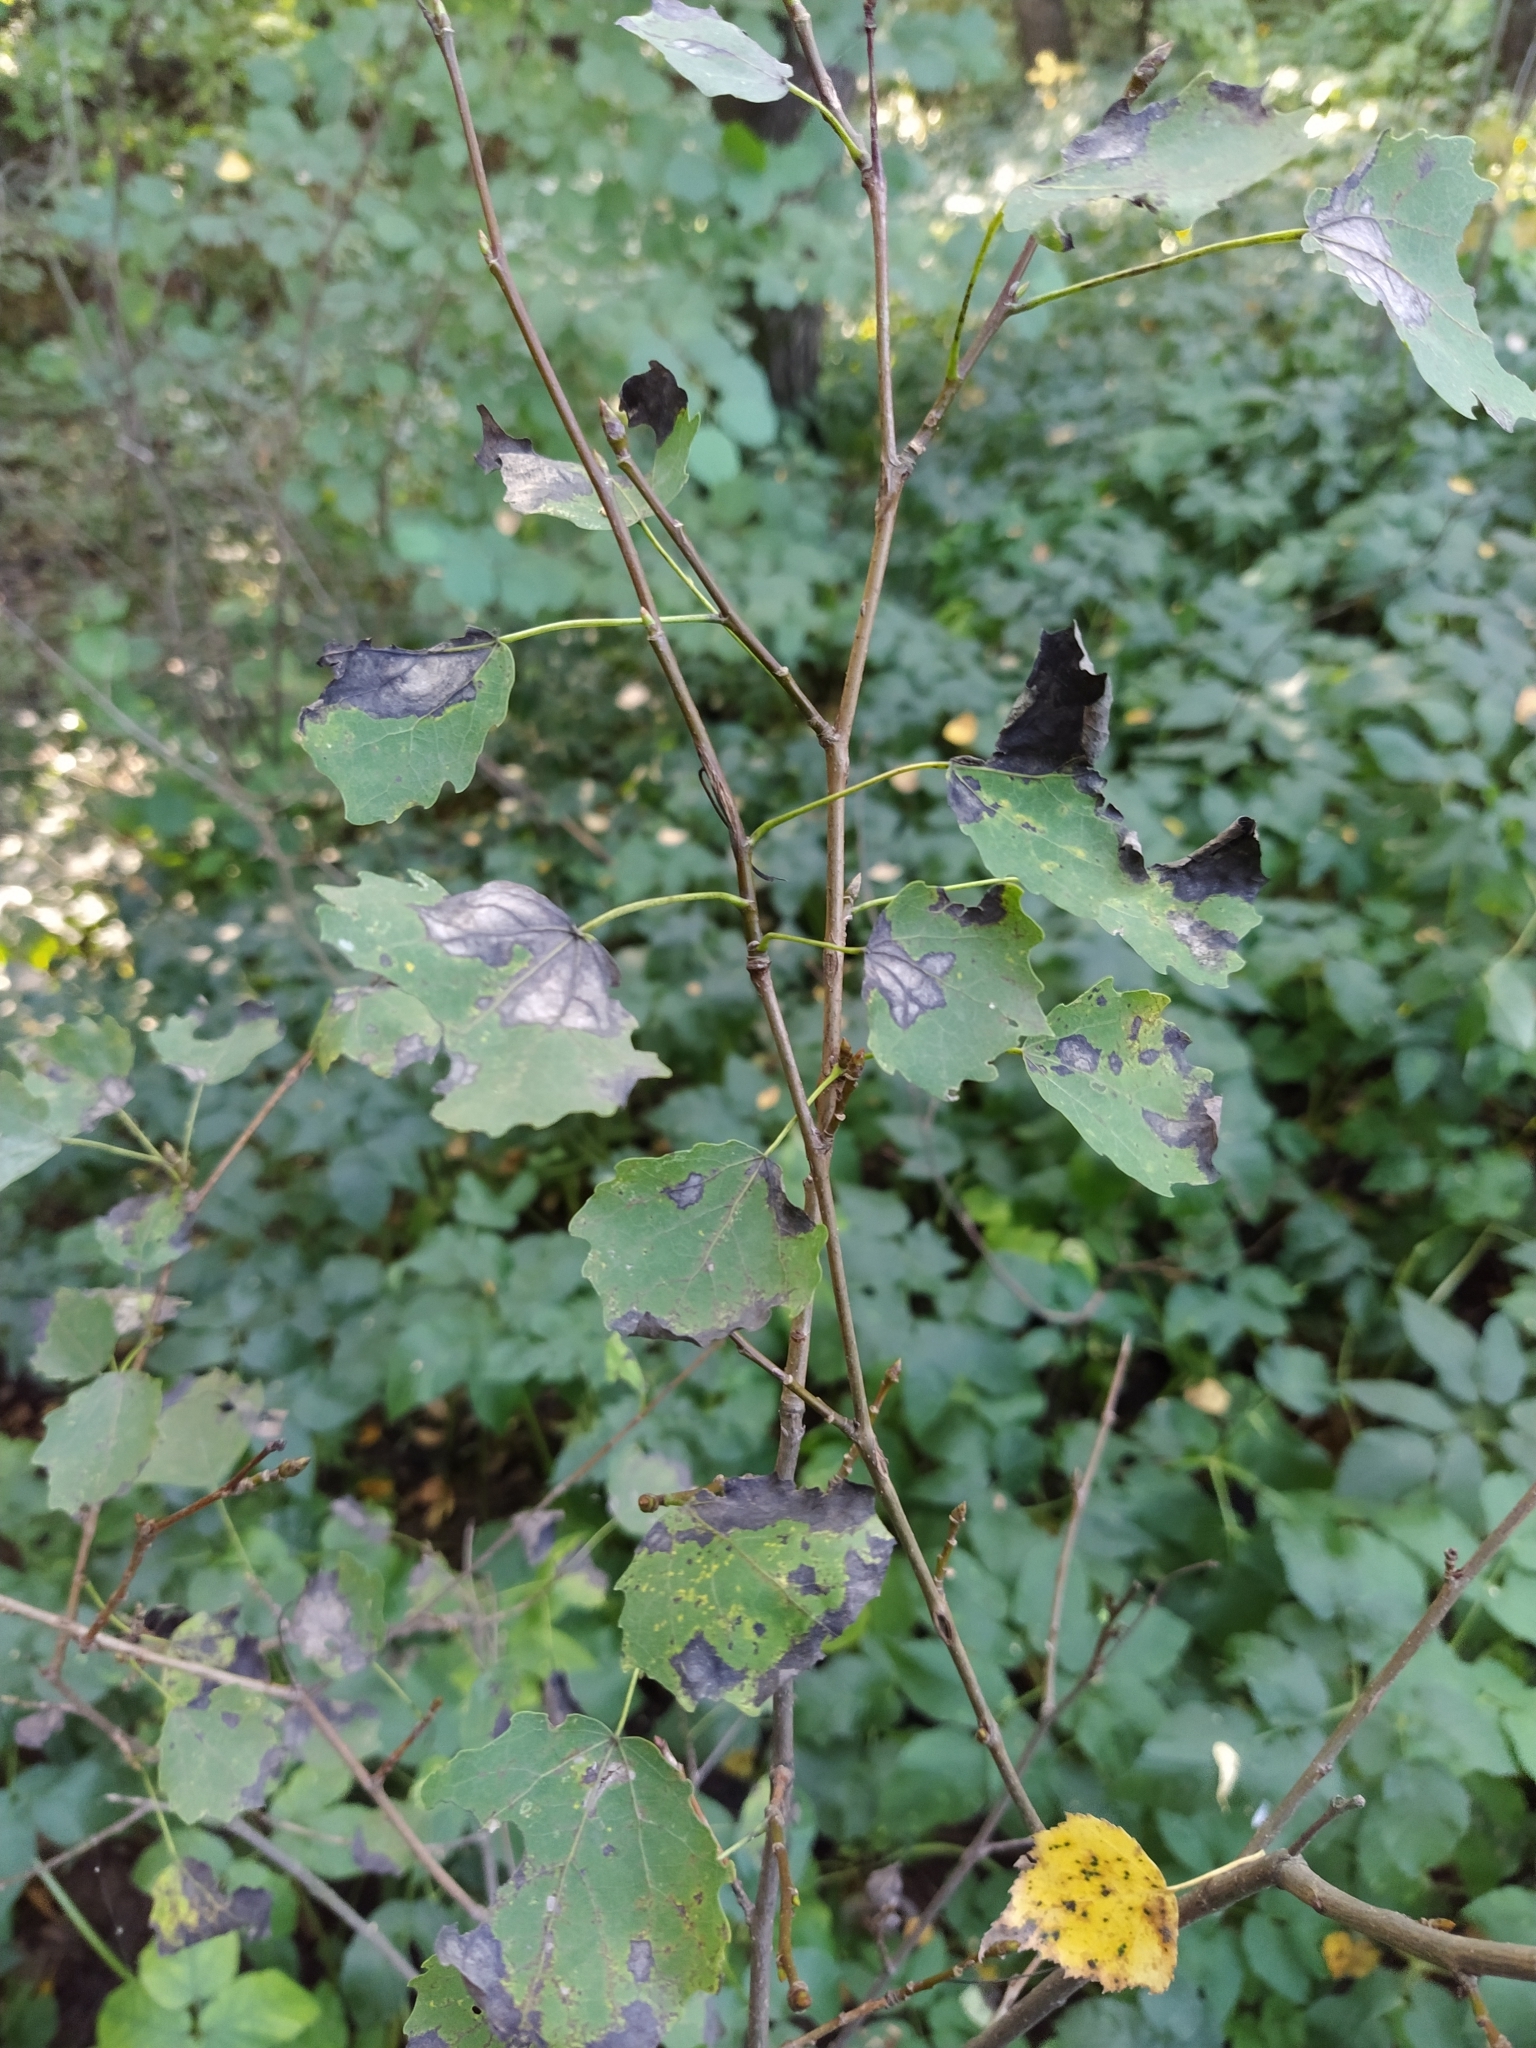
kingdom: Plantae
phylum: Tracheophyta
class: Magnoliopsida
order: Malpighiales
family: Salicaceae
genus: Populus
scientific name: Populus tremula
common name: European aspen
